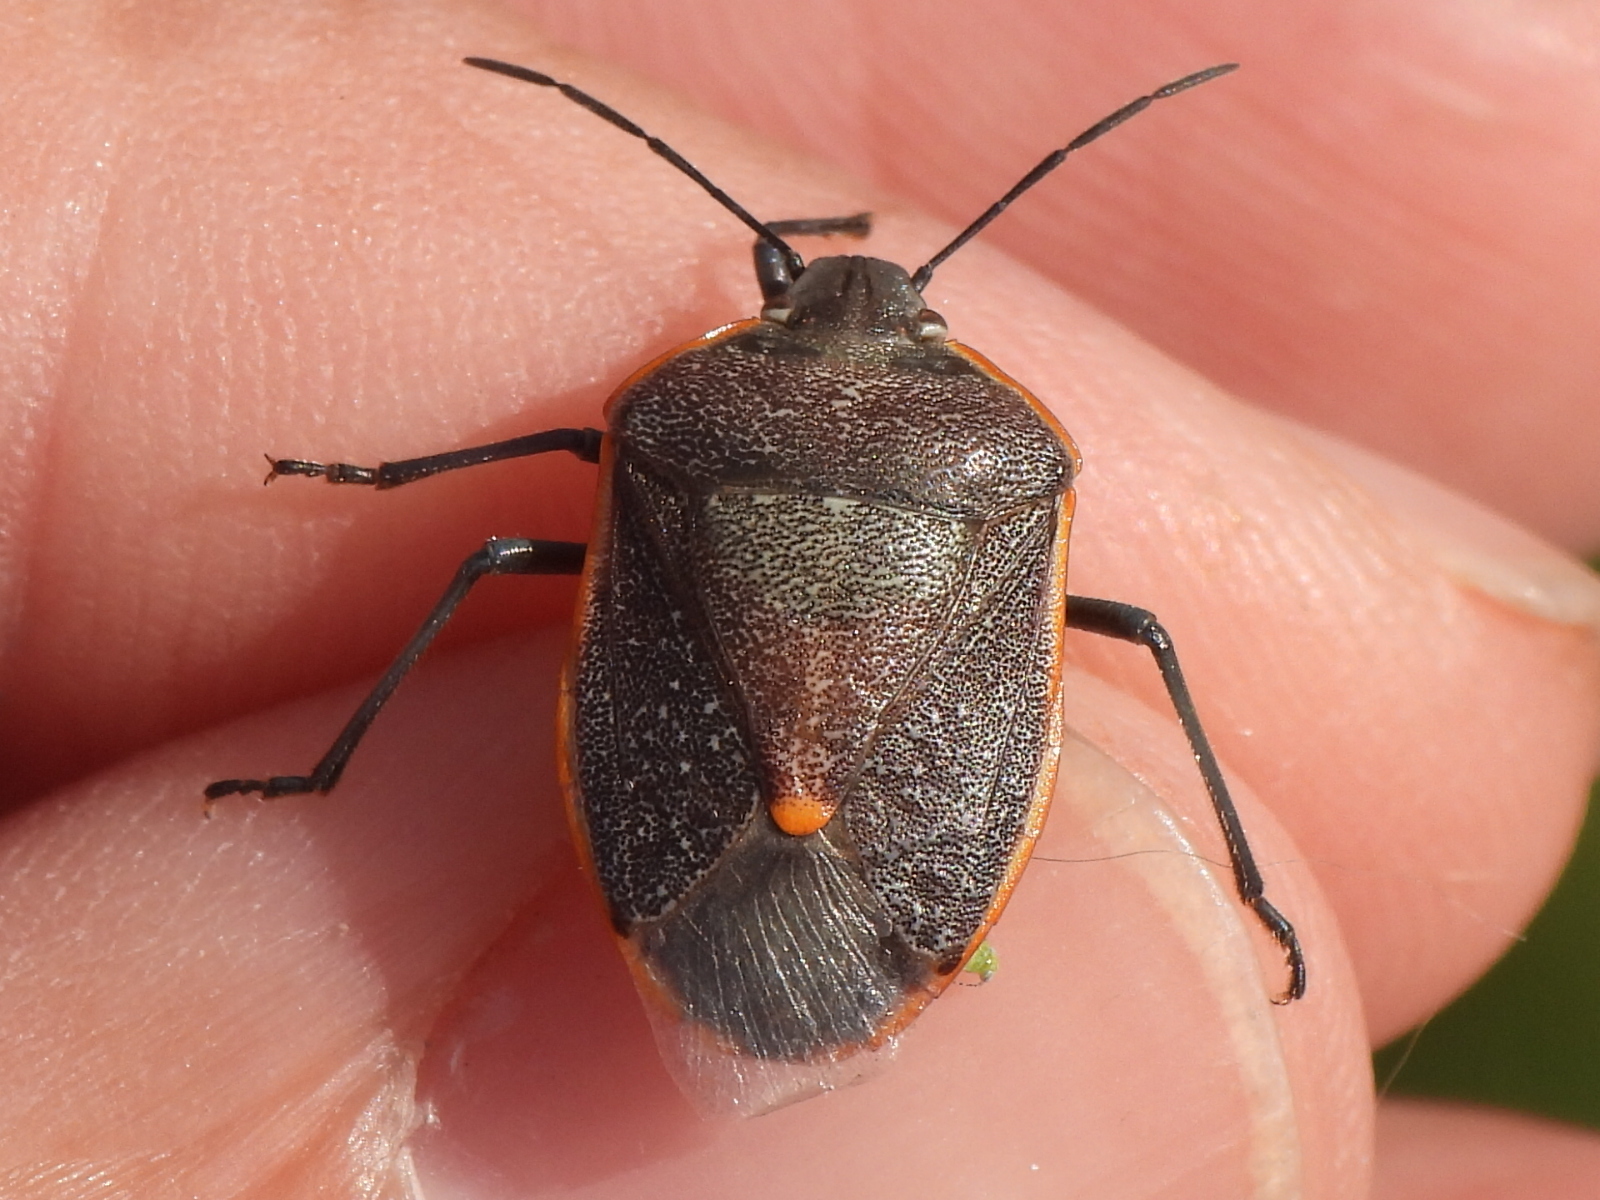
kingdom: Animalia
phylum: Arthropoda
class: Insecta
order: Hemiptera
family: Pentatomidae
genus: Chlorochroa
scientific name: Chlorochroa ligata
